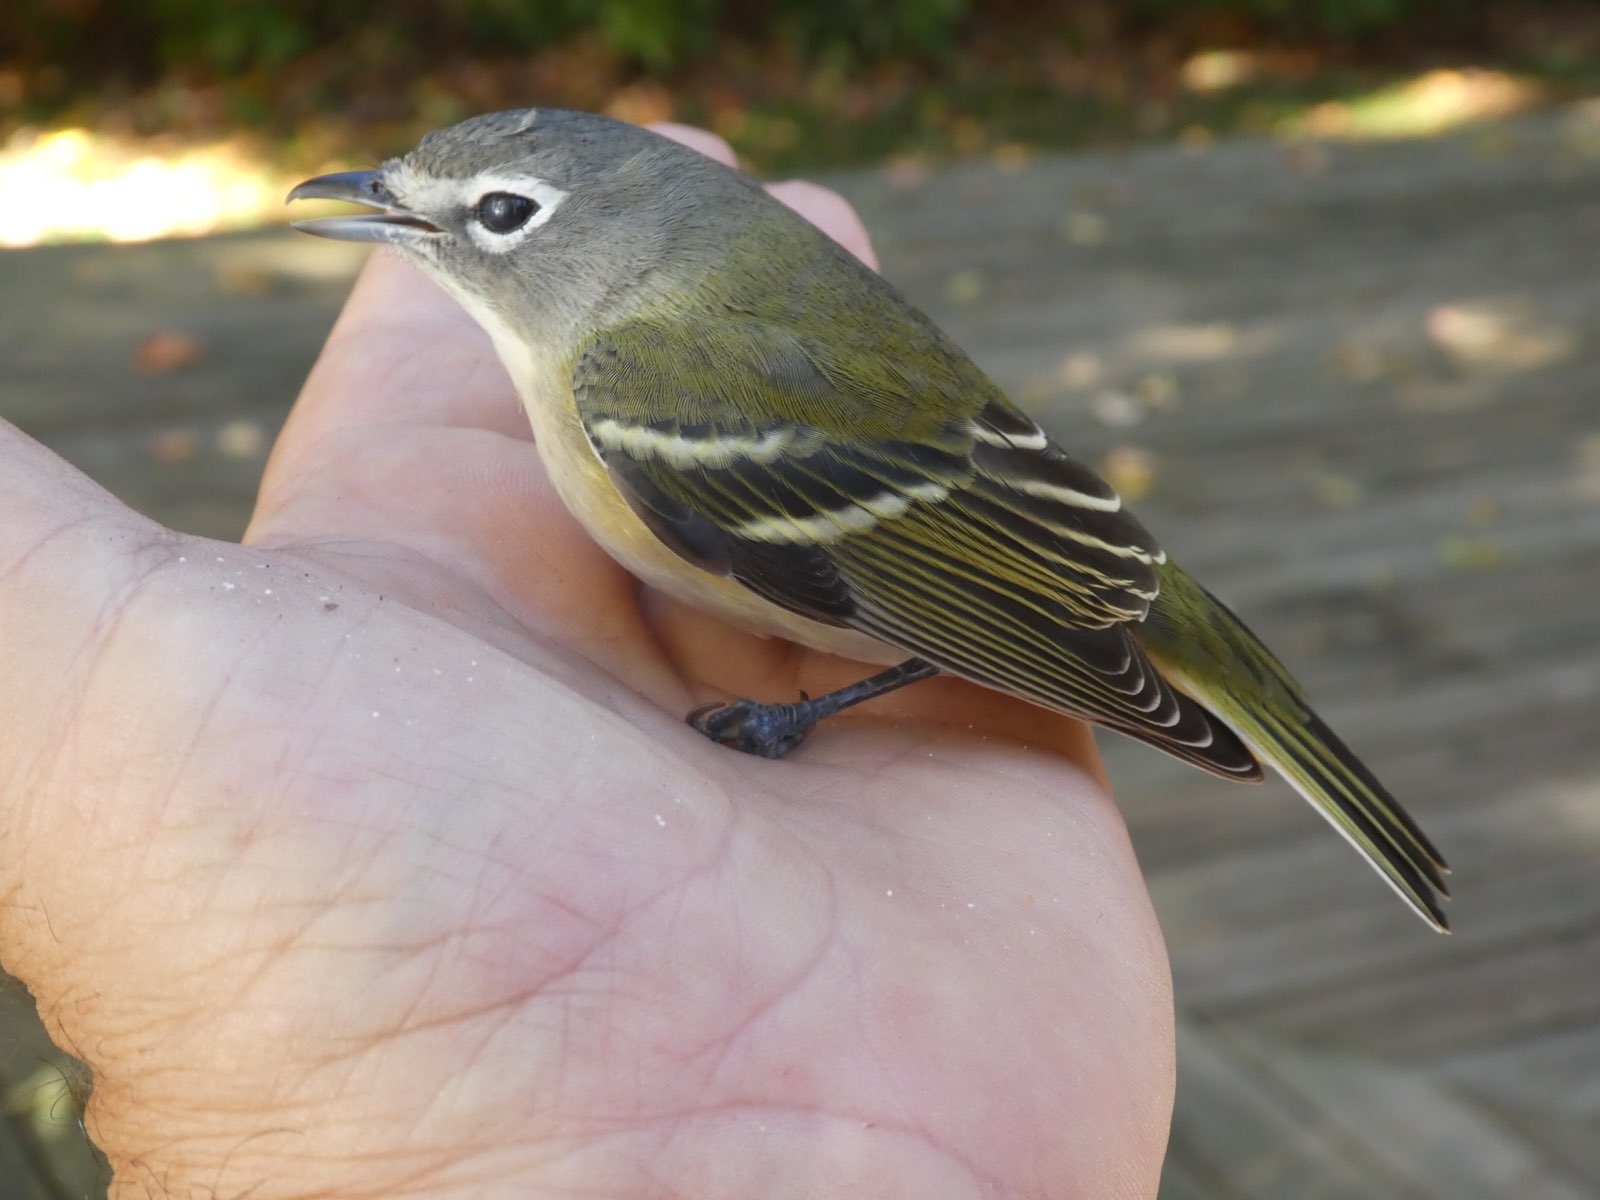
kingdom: Animalia
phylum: Chordata
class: Aves
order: Passeriformes
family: Vireonidae
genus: Vireo
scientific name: Vireo solitarius
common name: Blue-headed vireo
